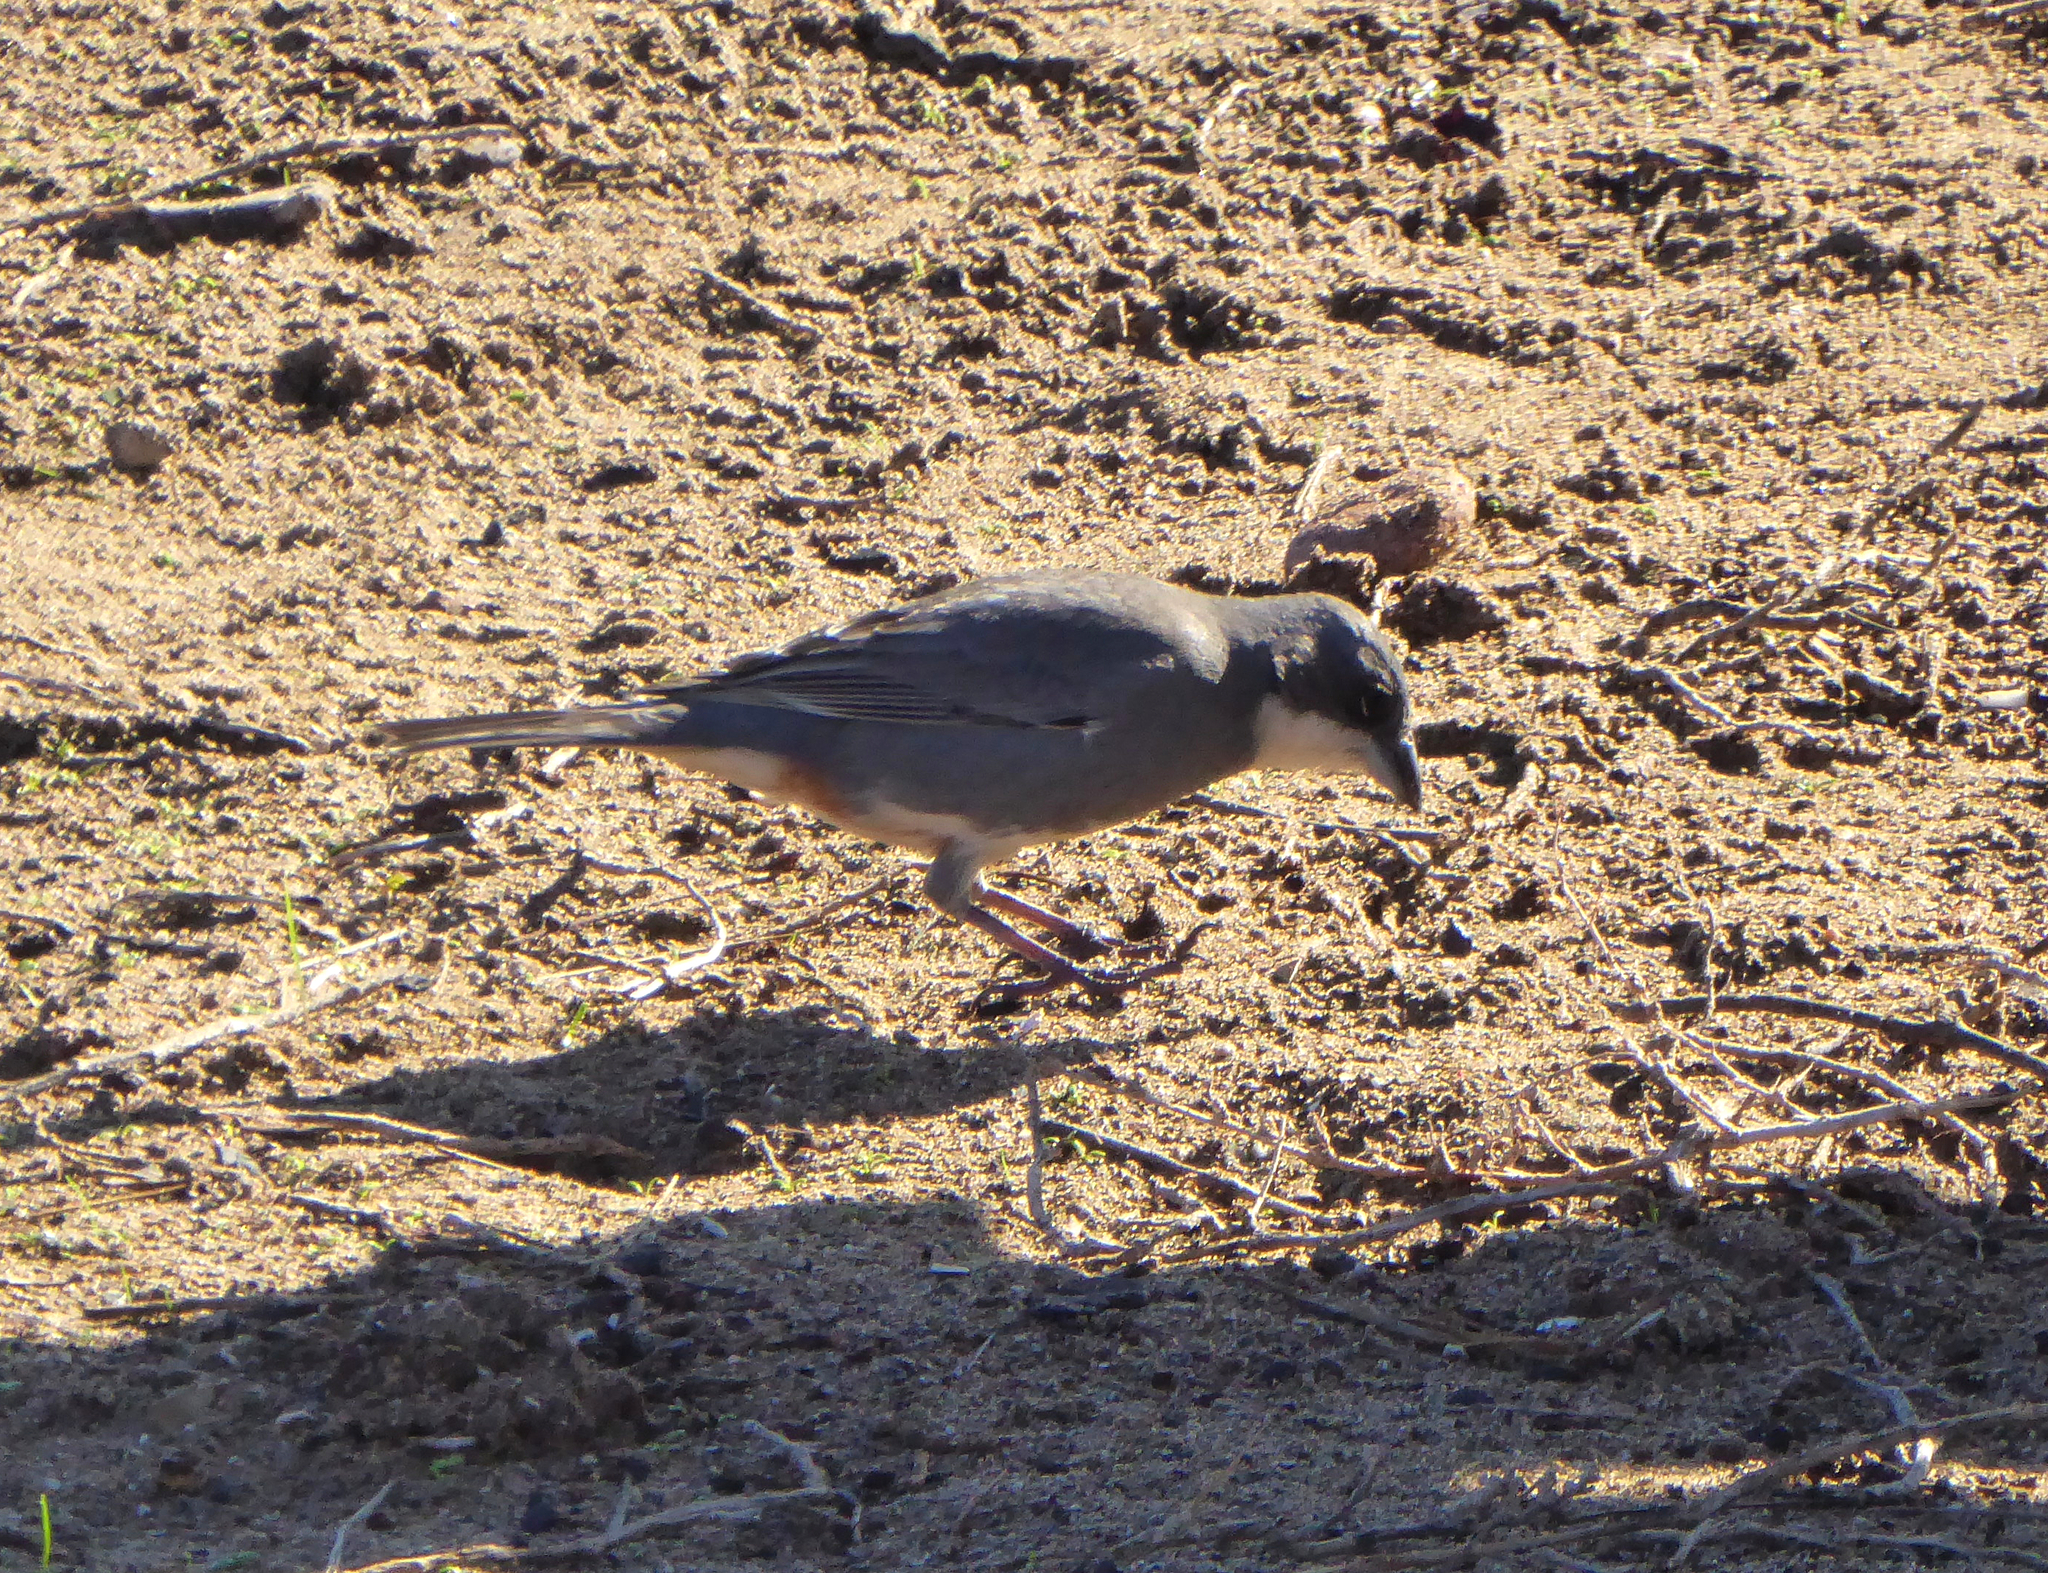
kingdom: Animalia
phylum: Chordata
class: Aves
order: Passeriformes
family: Thraupidae
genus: Diuca
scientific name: Diuca diuca
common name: Common diuca finch
